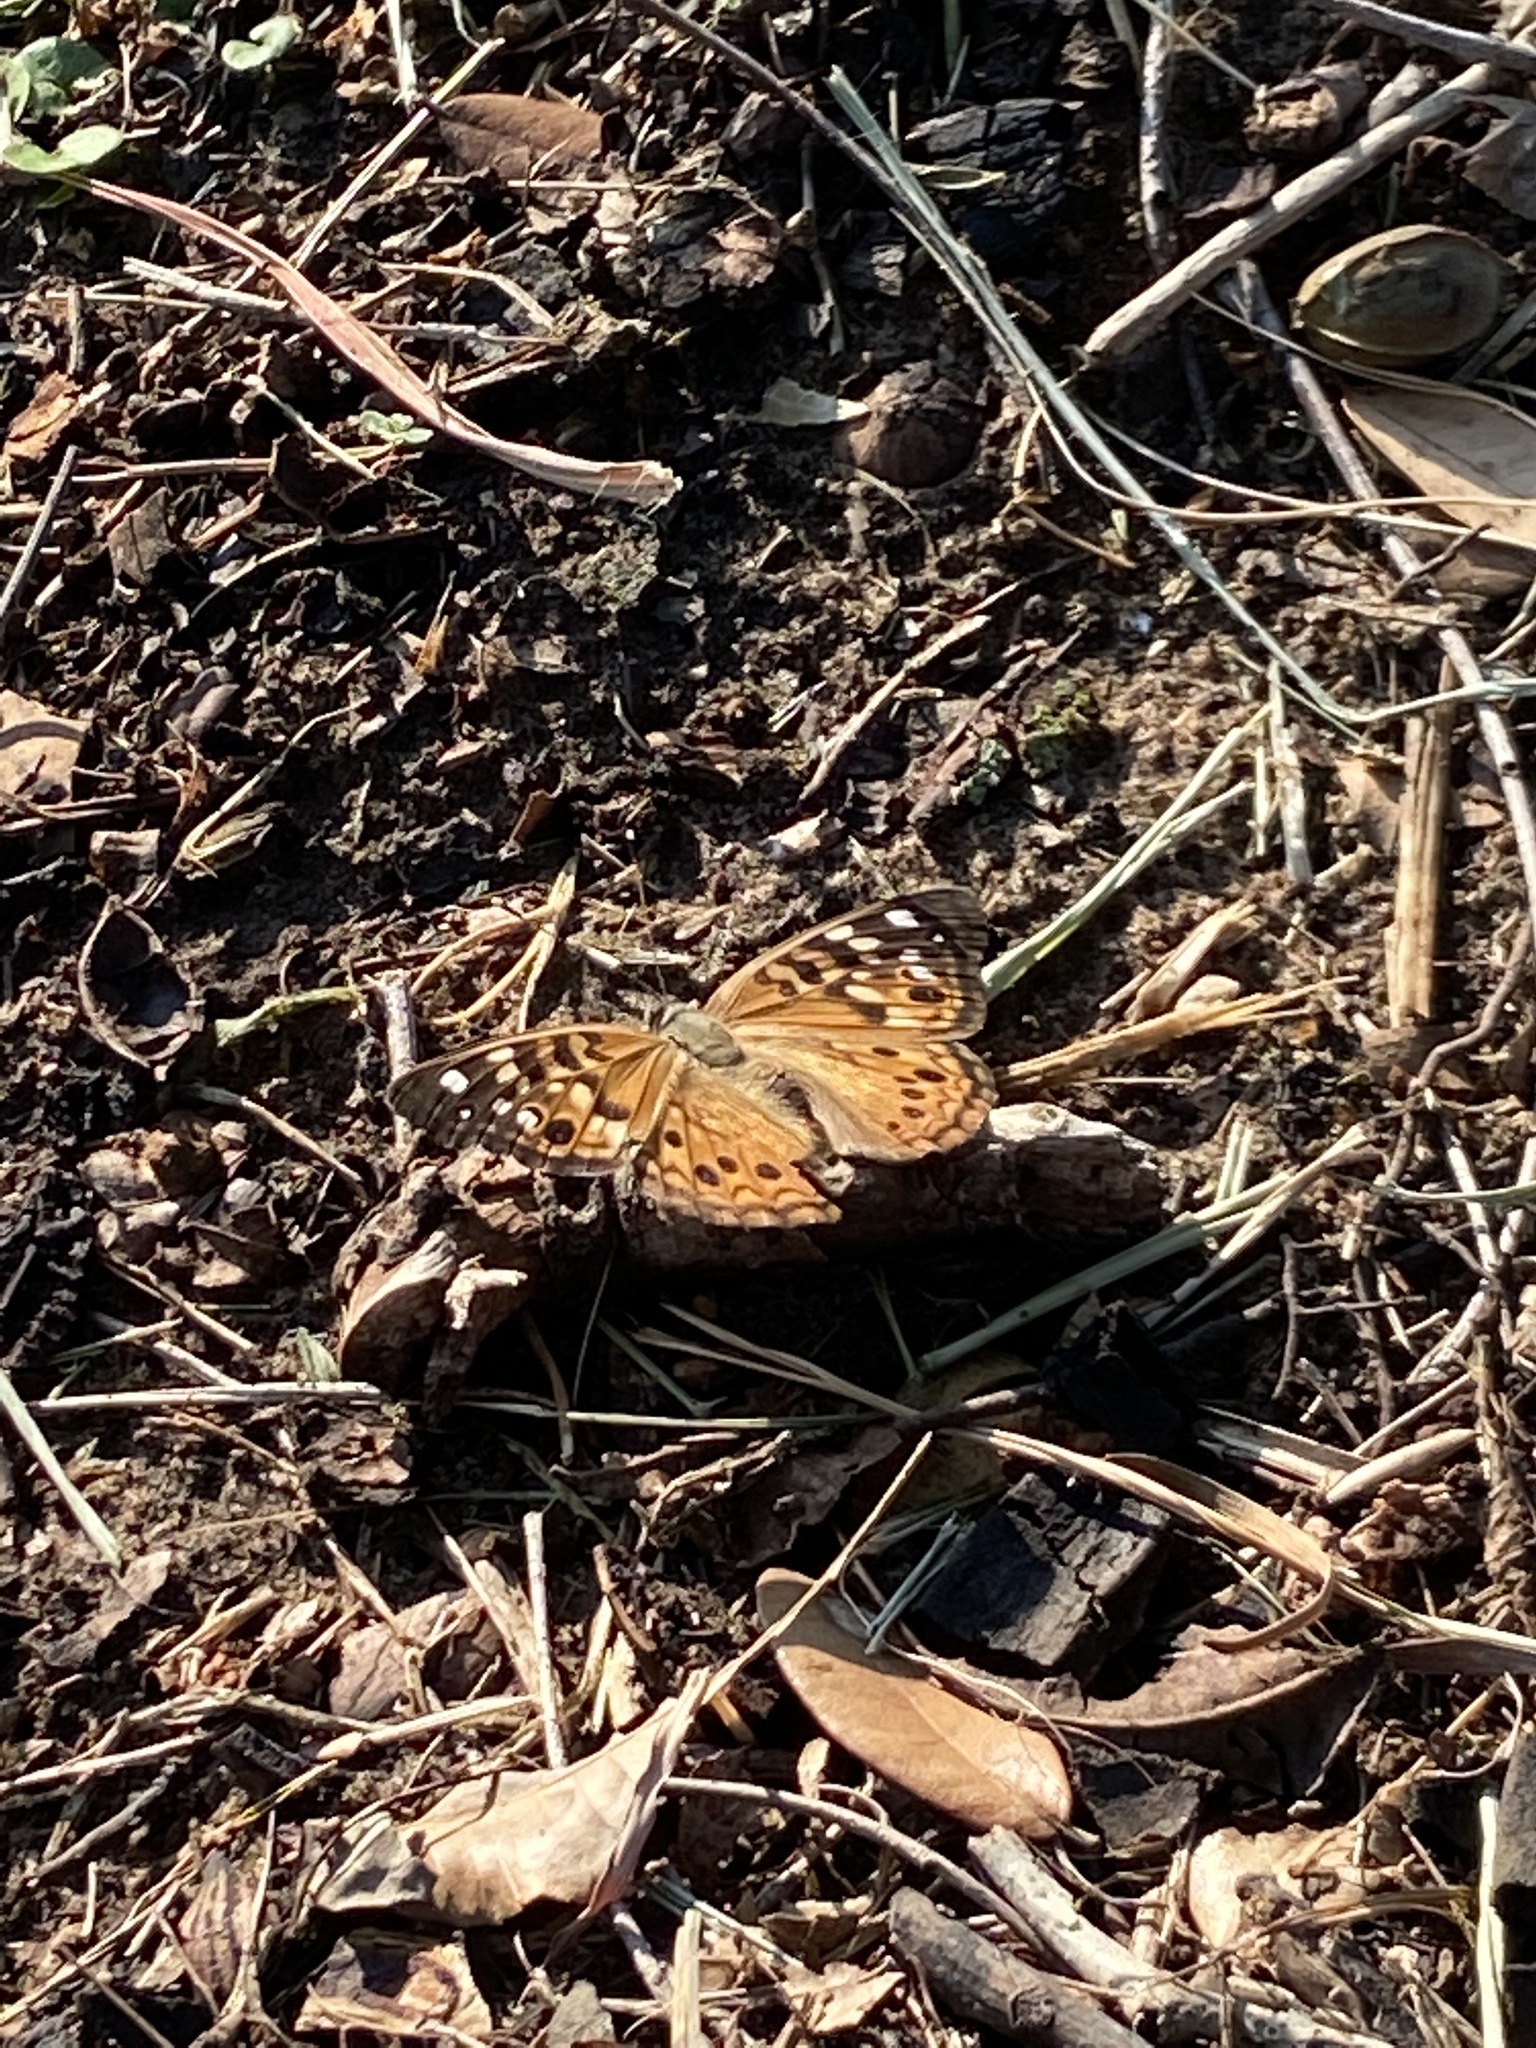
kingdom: Animalia
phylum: Arthropoda
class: Insecta
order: Lepidoptera
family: Nymphalidae
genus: Asterocampa
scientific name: Asterocampa celtis
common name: Hackberry emperor
